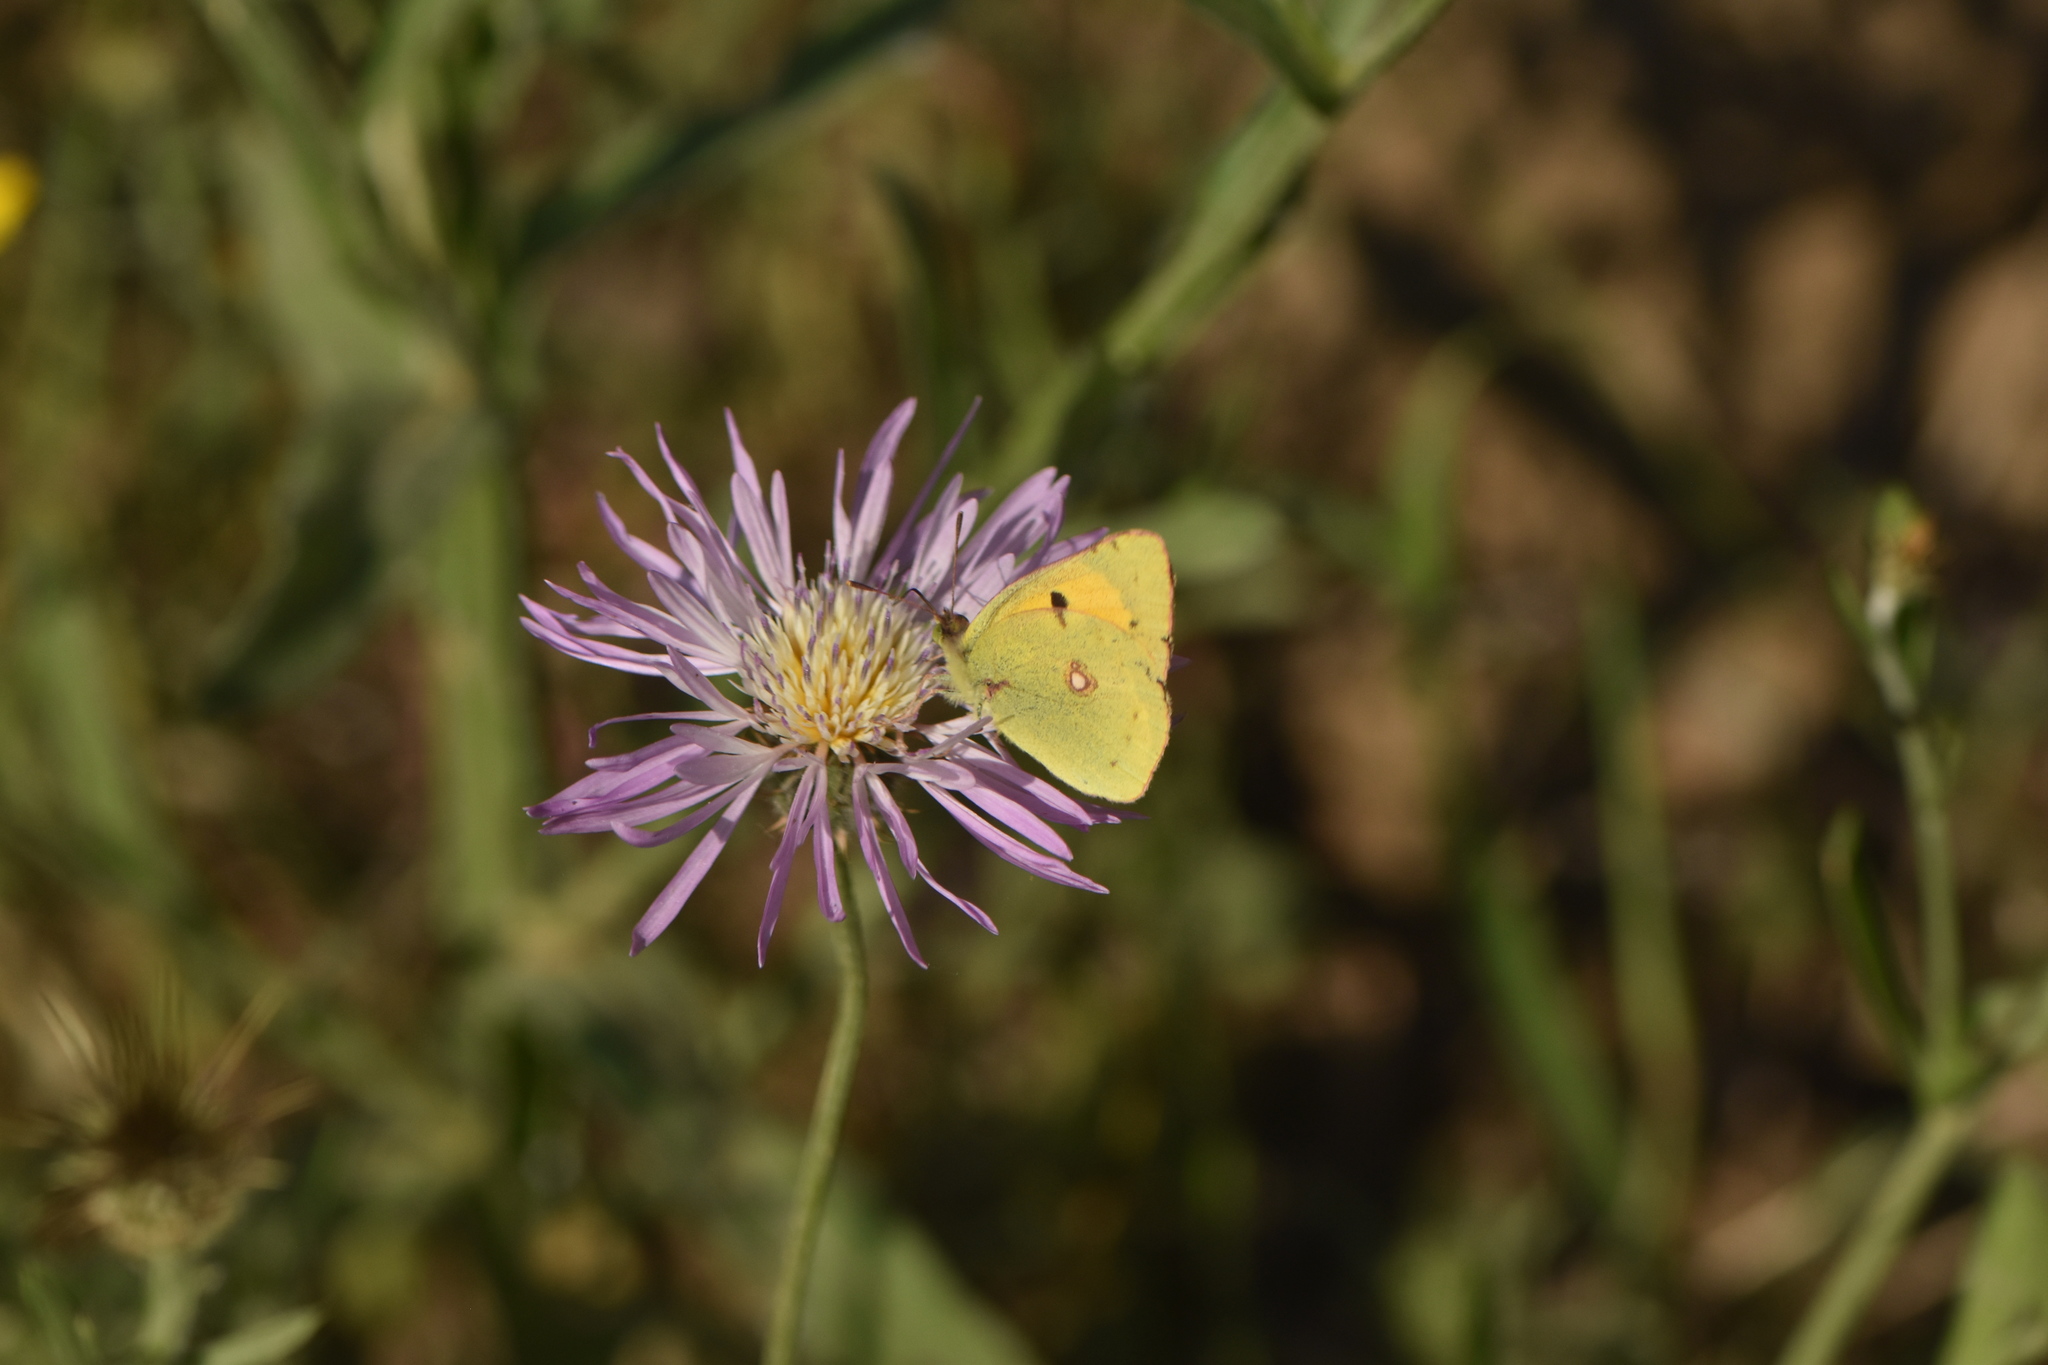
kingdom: Animalia
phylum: Arthropoda
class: Insecta
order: Lepidoptera
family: Pieridae
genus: Colias
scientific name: Colias croceus
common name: Clouded yellow
